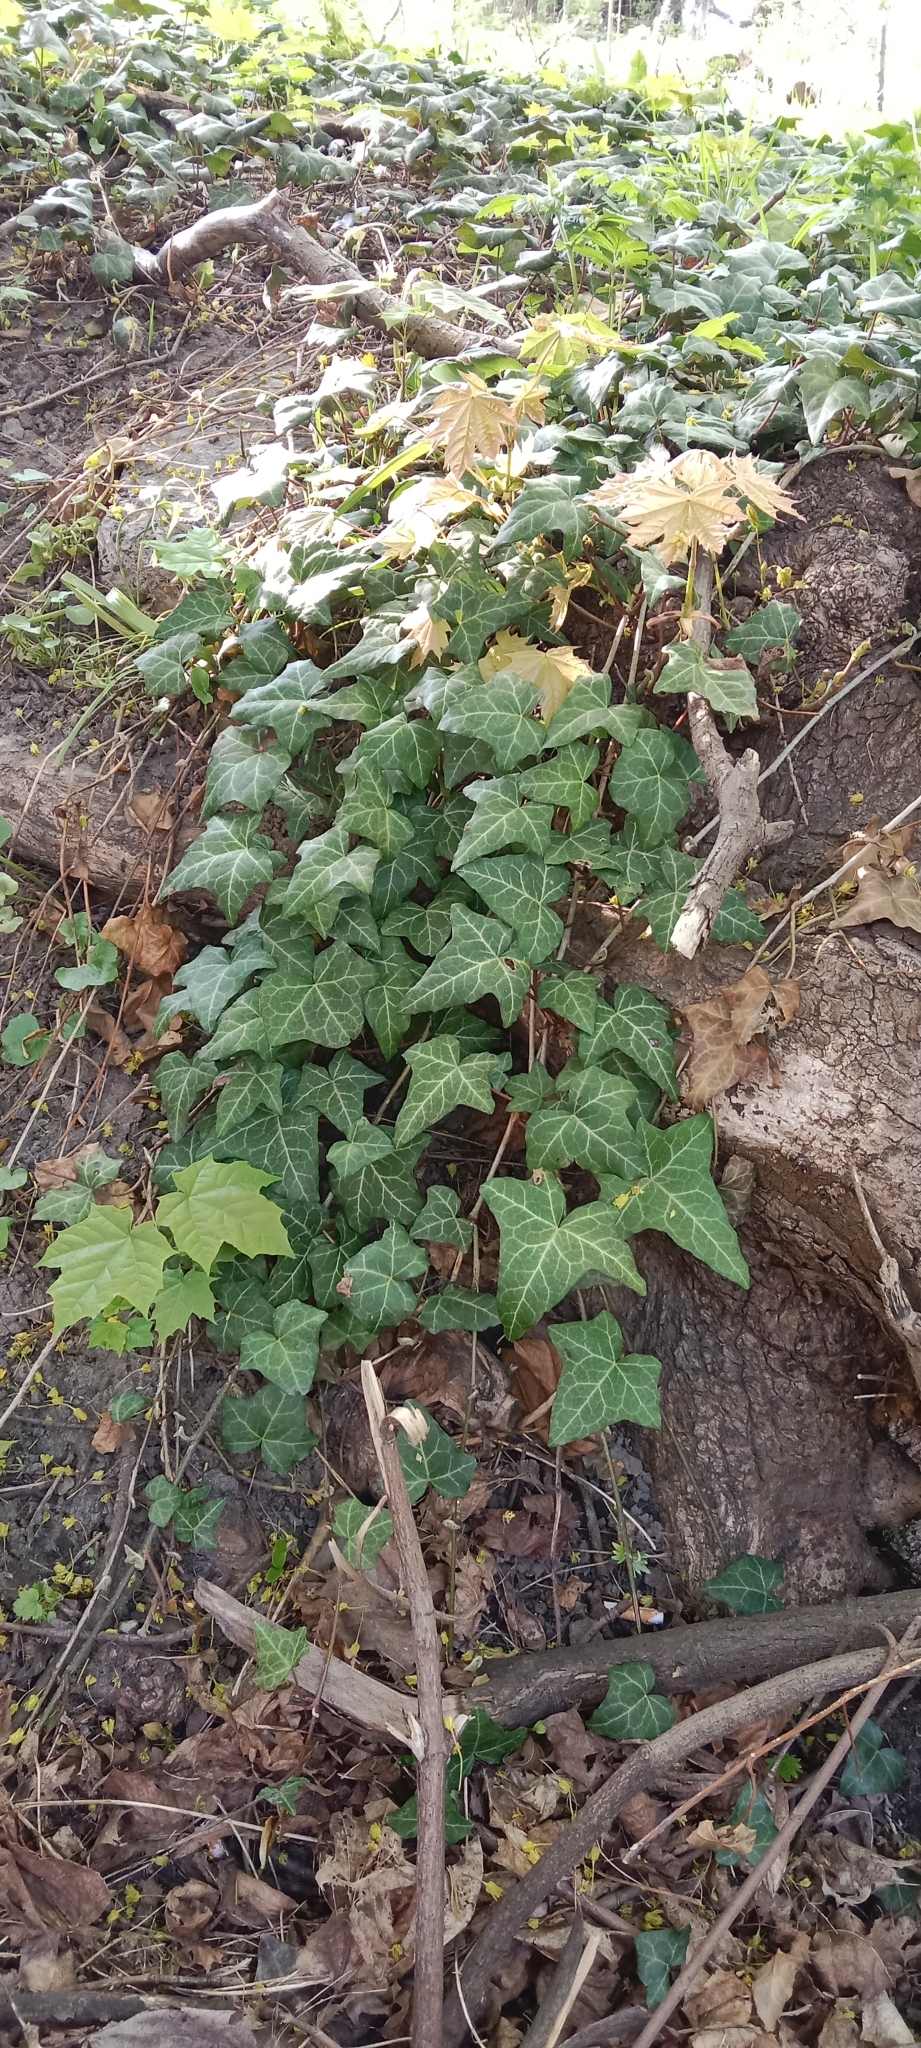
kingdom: Plantae
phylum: Tracheophyta
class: Magnoliopsida
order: Apiales
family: Araliaceae
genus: Hedera
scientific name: Hedera helix
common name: Ivy
